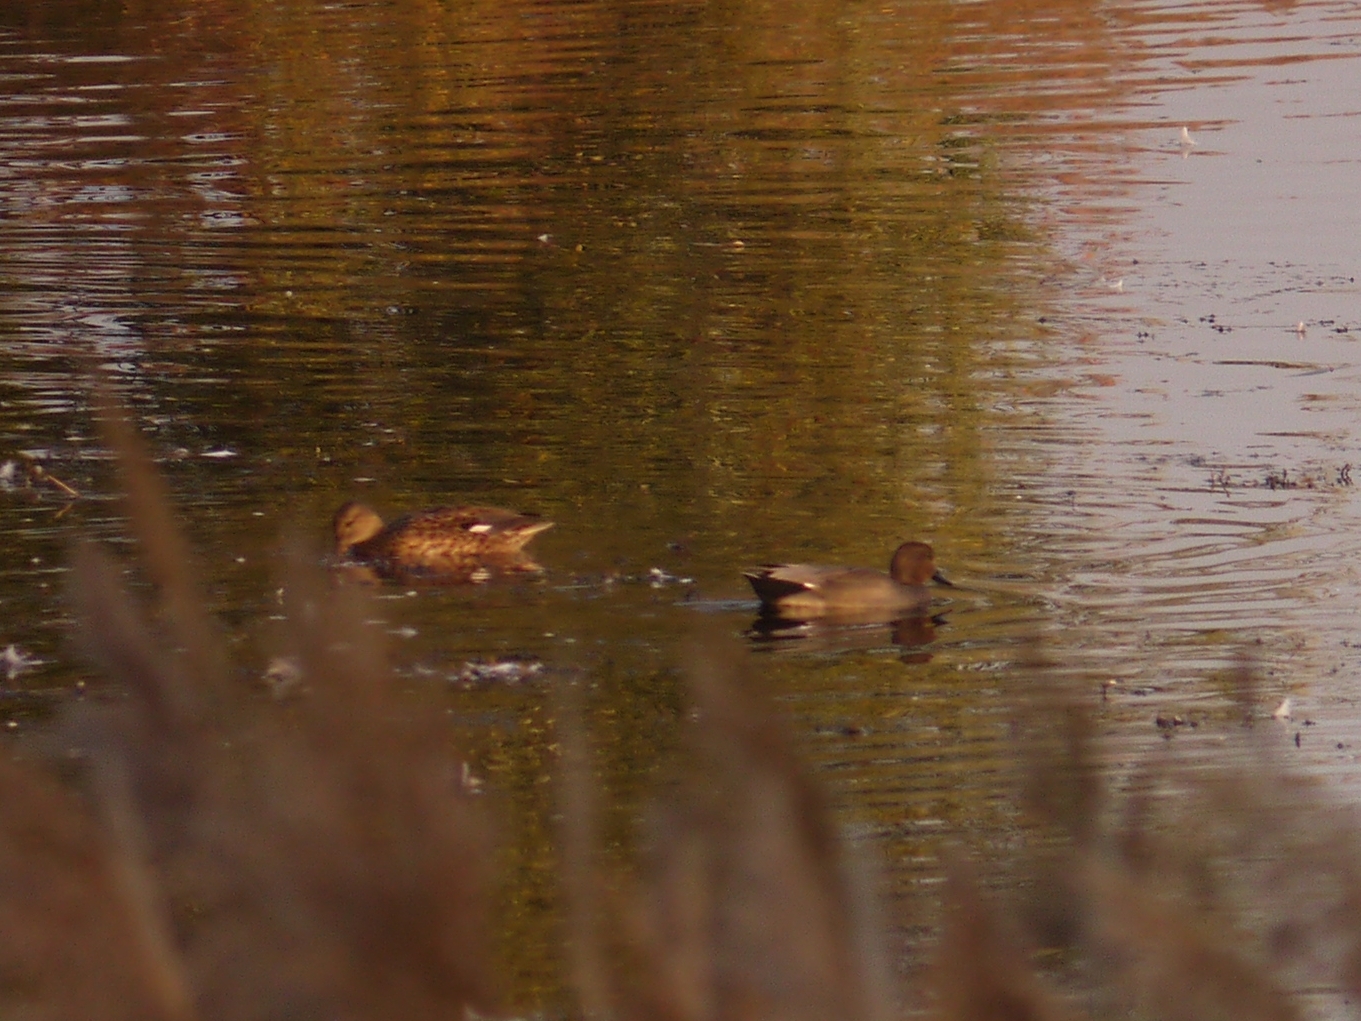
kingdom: Animalia
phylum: Chordata
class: Aves
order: Anseriformes
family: Anatidae
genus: Mareca
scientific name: Mareca strepera
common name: Gadwall
